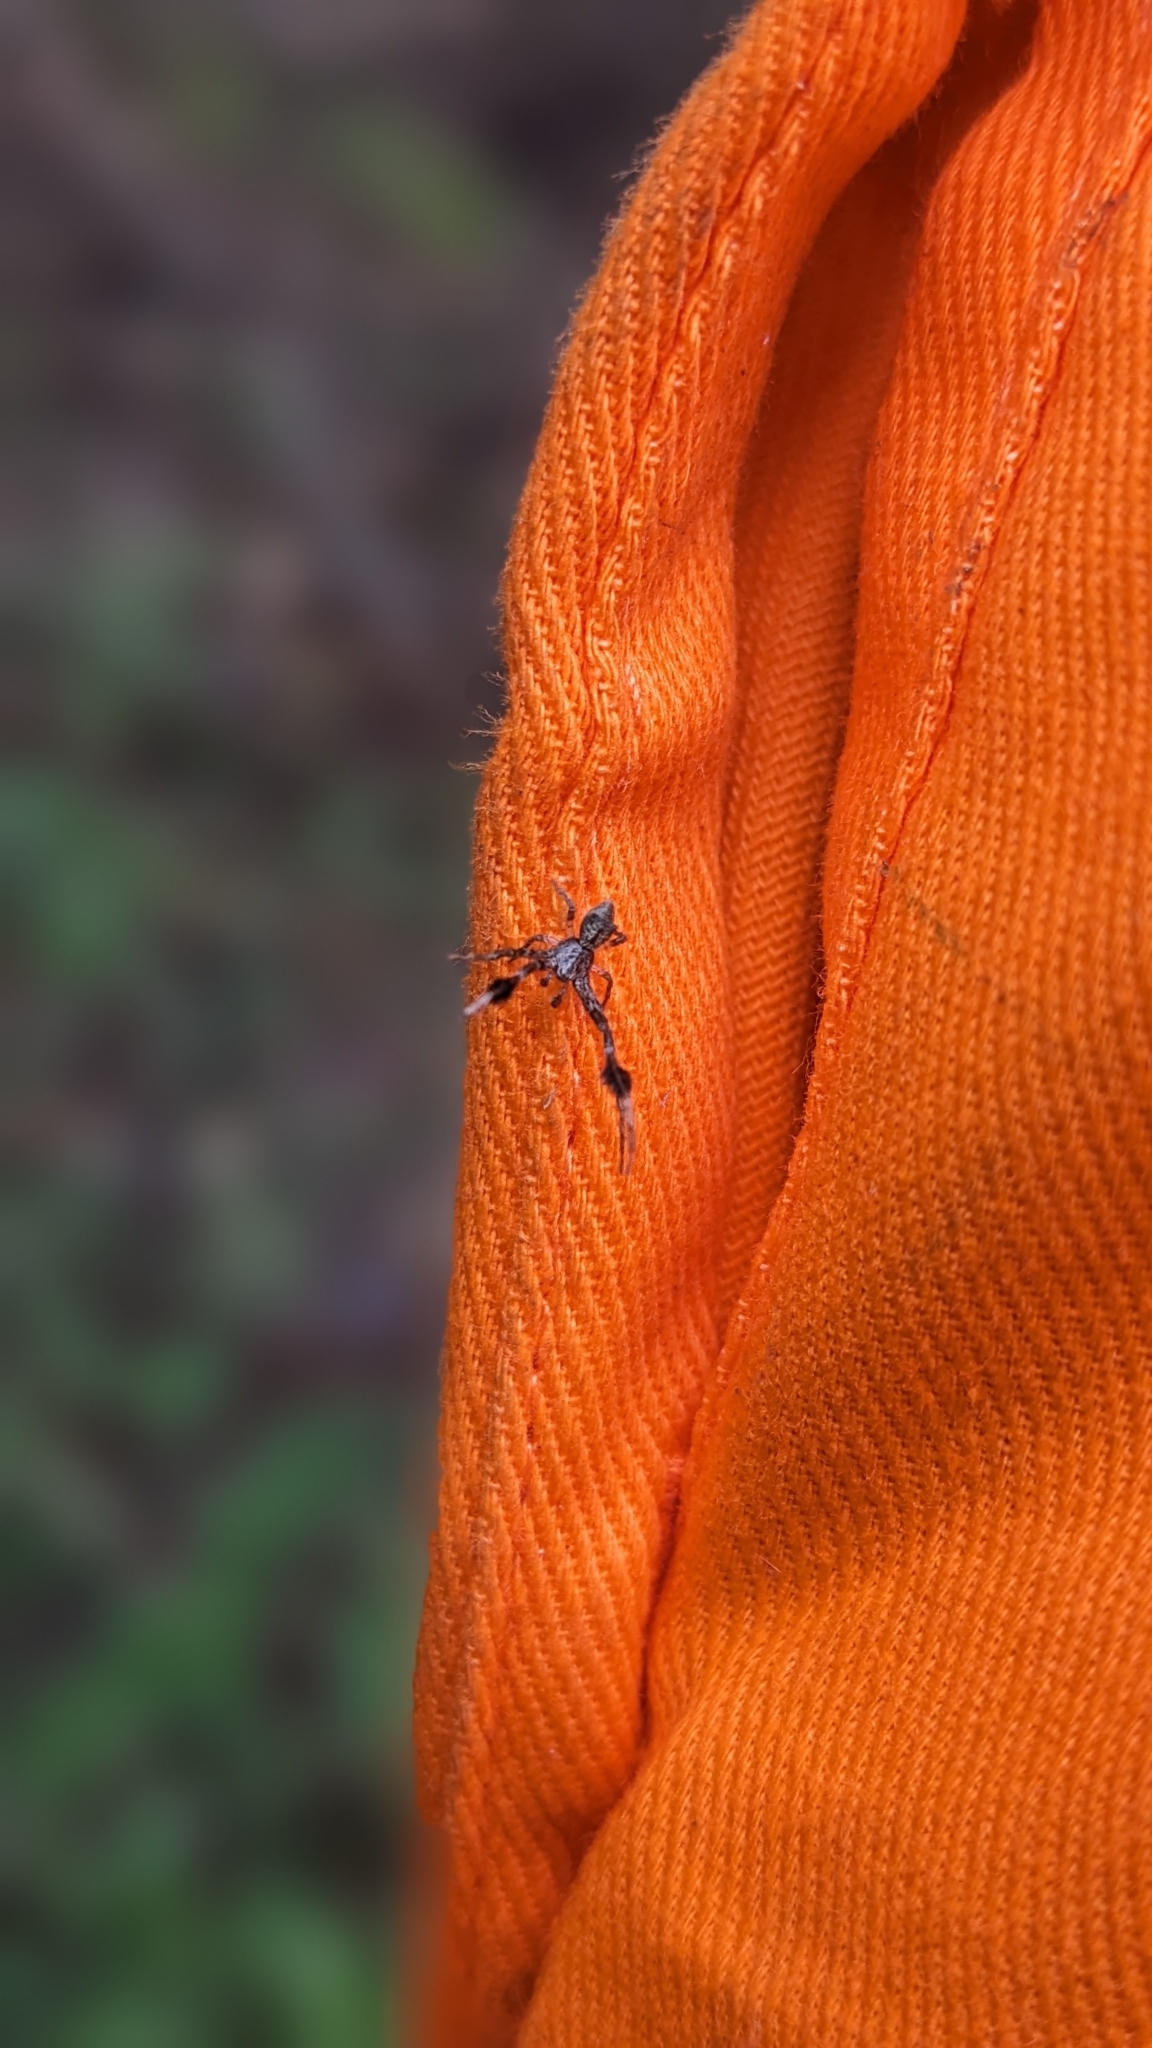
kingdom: Animalia
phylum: Arthropoda
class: Arachnida
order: Araneae
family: Thomisidae
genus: Stephanopis
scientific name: Stephanopis barbipes
